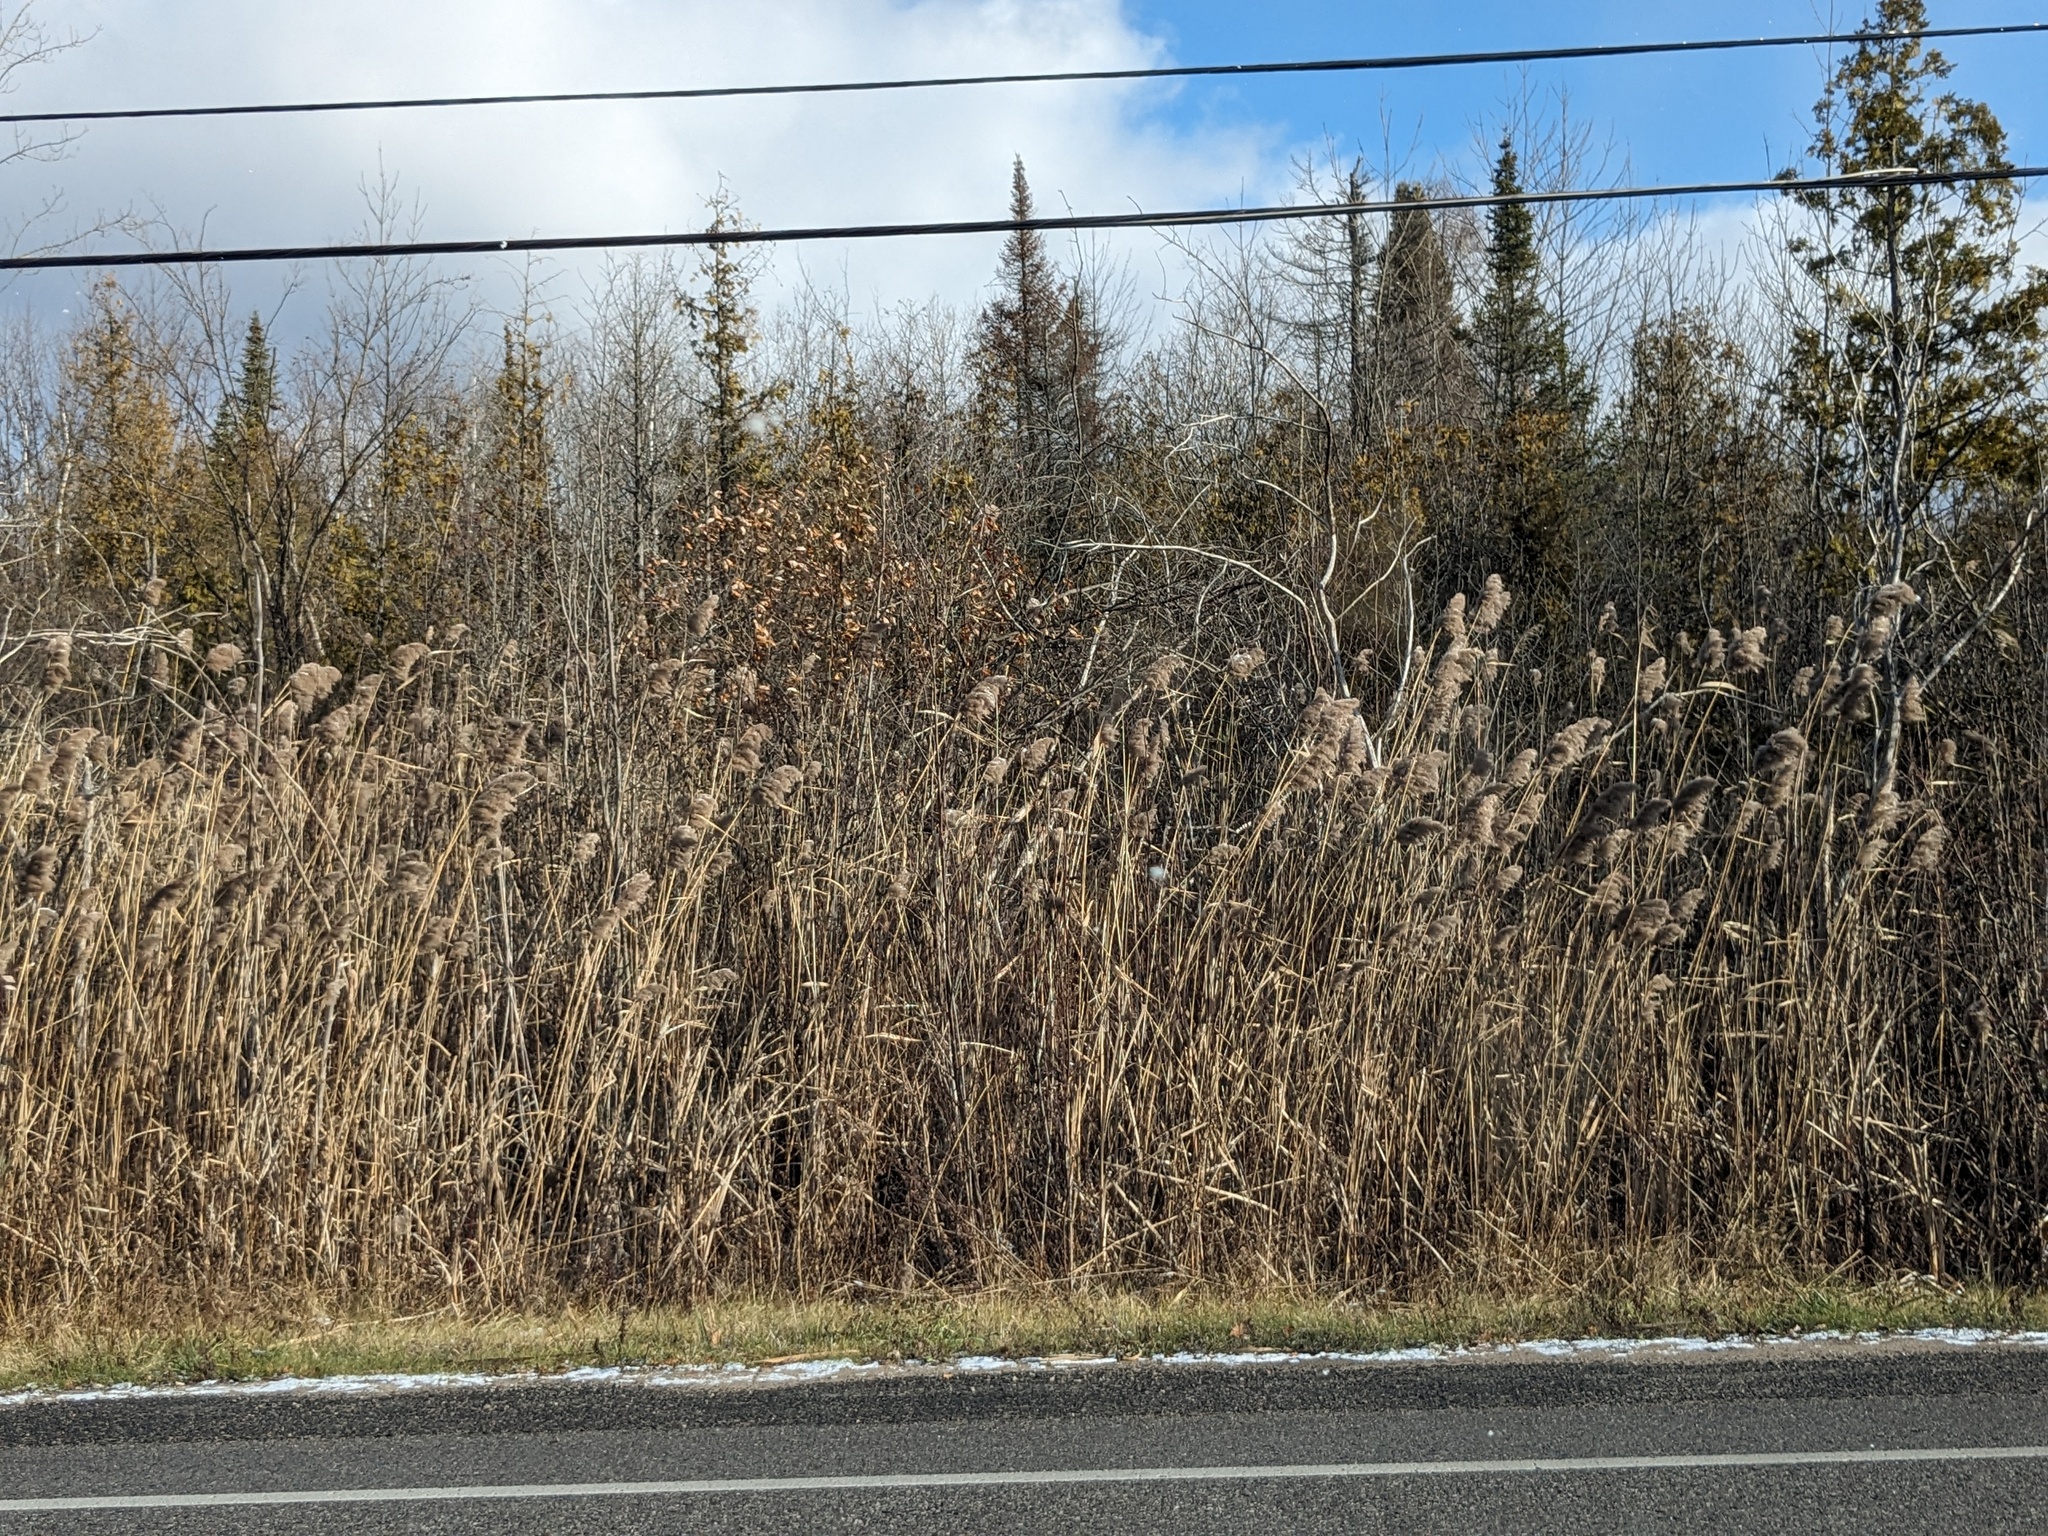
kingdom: Plantae
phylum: Tracheophyta
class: Liliopsida
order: Poales
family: Poaceae
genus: Phragmites
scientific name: Phragmites australis
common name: Common reed
